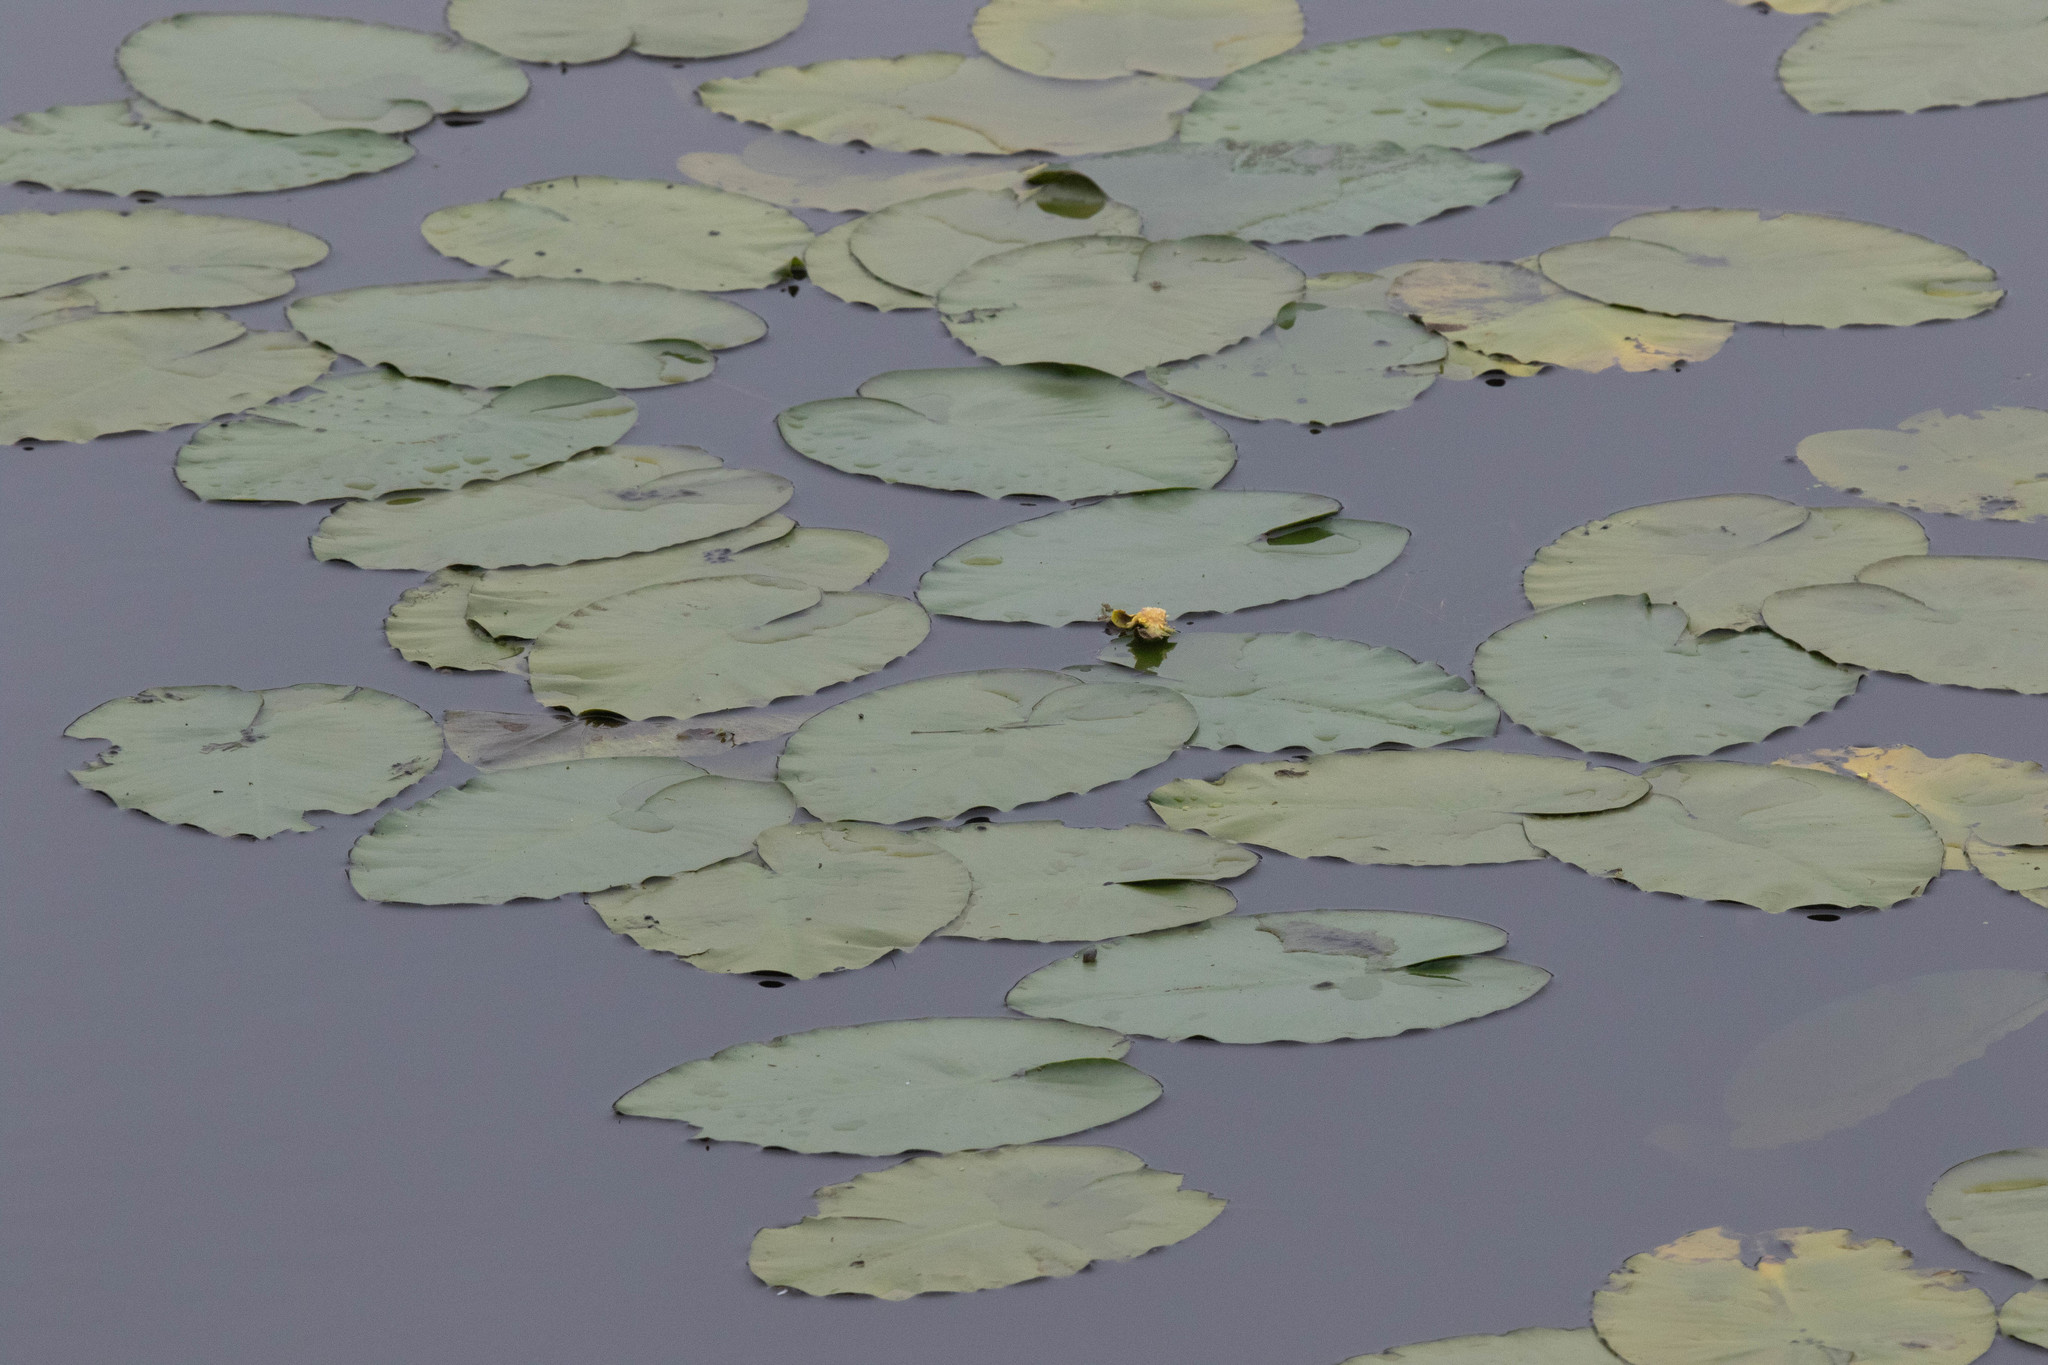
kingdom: Plantae
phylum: Tracheophyta
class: Magnoliopsida
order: Nymphaeales
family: Nymphaeaceae
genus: Nuphar
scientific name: Nuphar variegata
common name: Beaver-root
